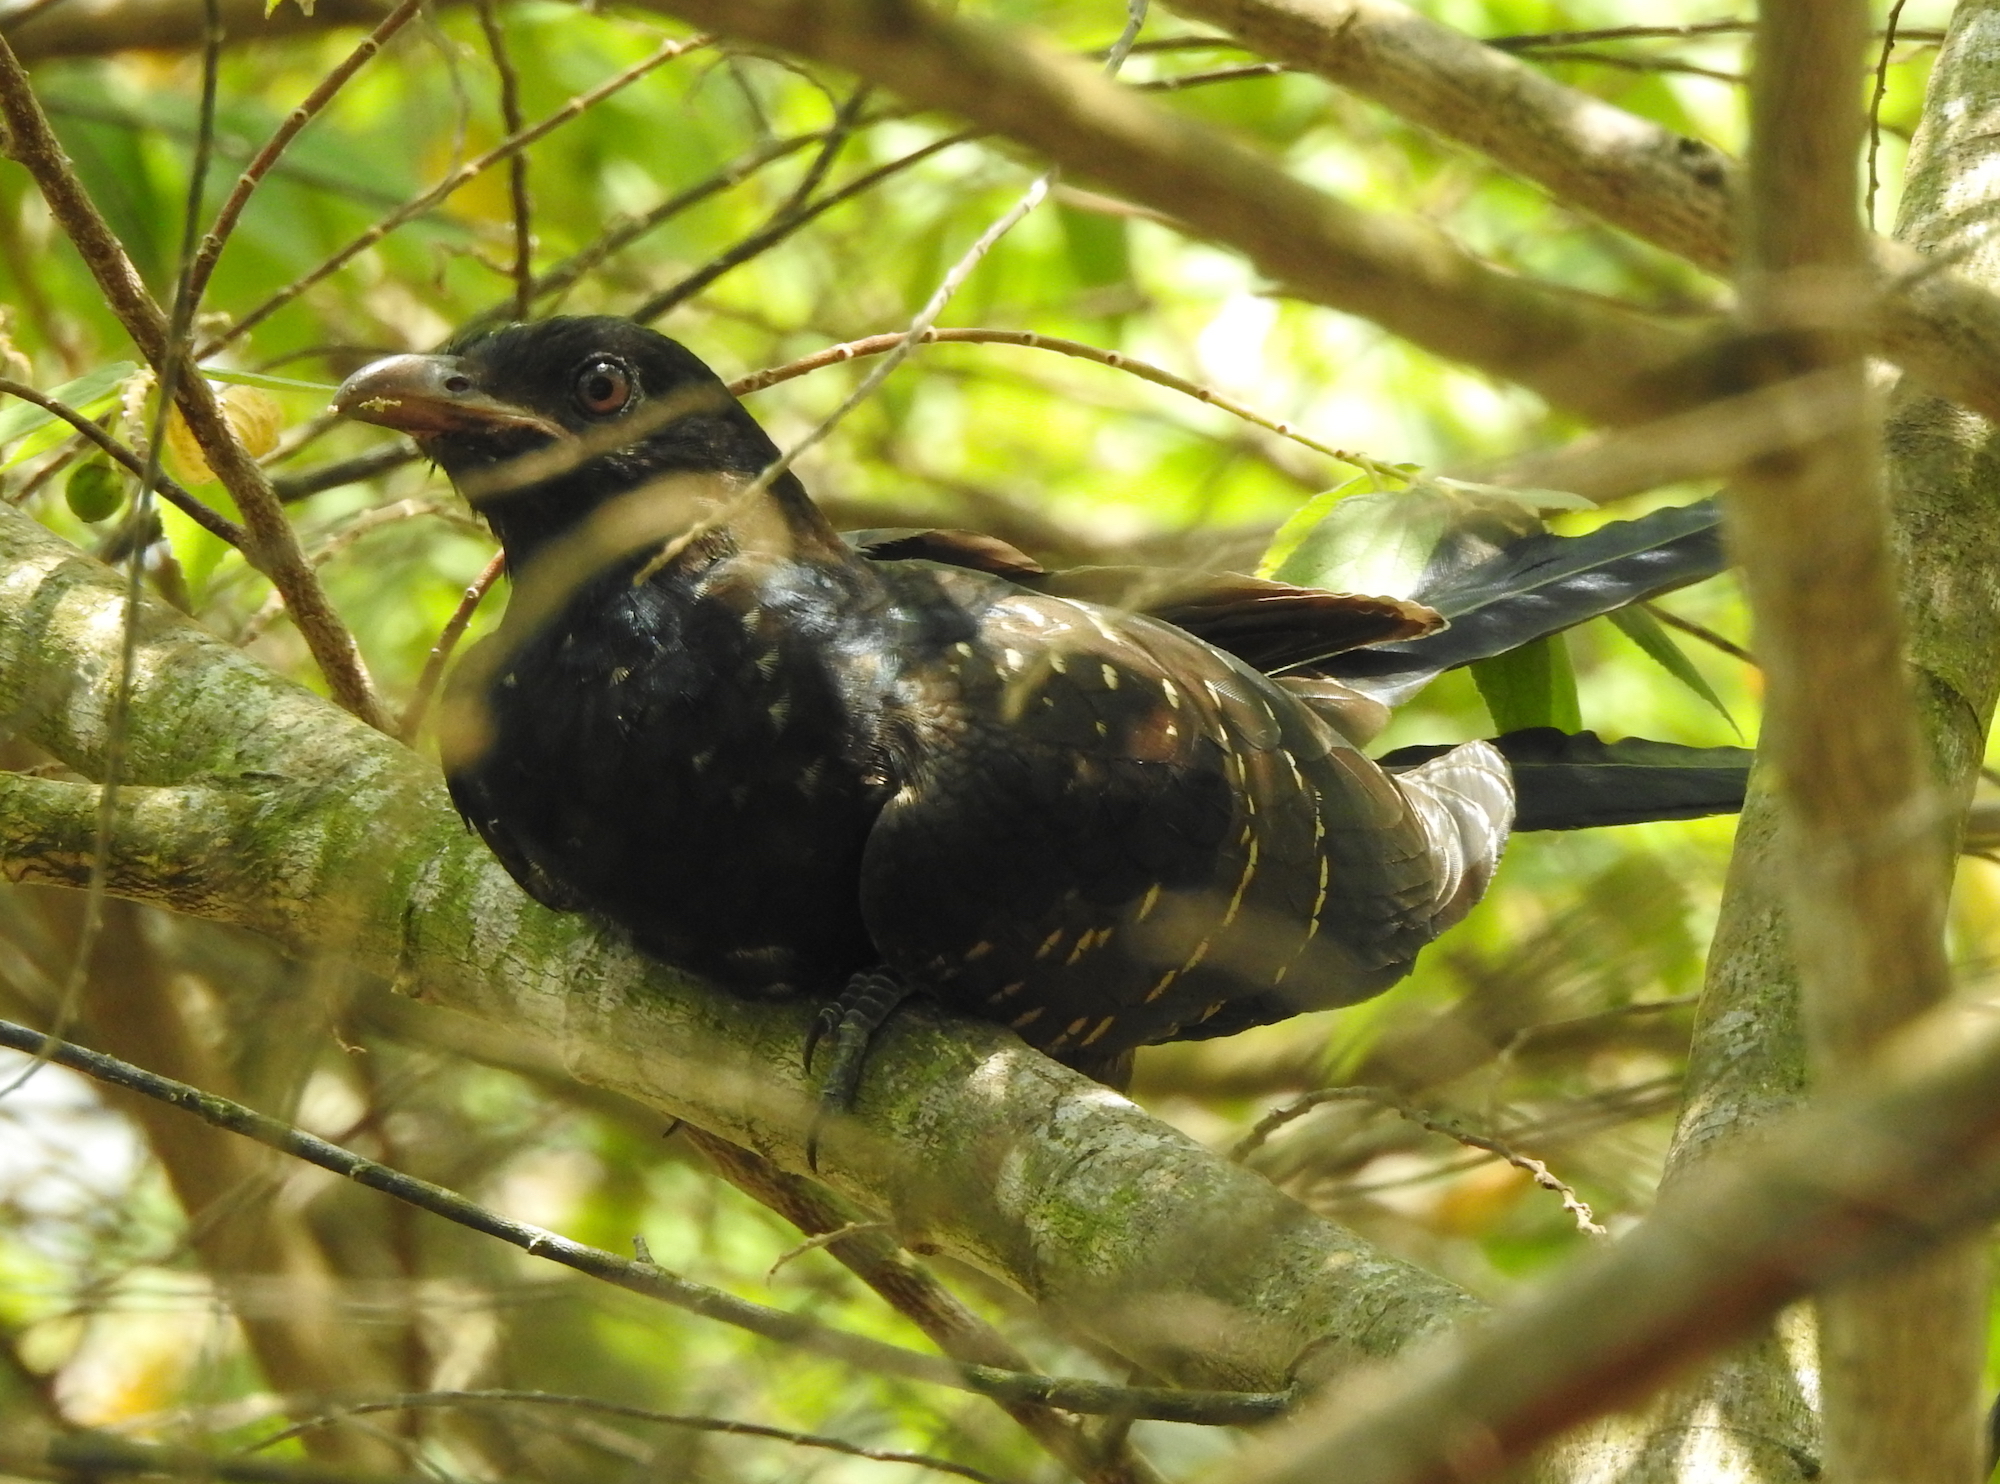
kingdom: Animalia
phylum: Chordata
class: Aves
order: Cuculiformes
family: Cuculidae
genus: Eudynamys
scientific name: Eudynamys scolopaceus
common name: Asian koel
